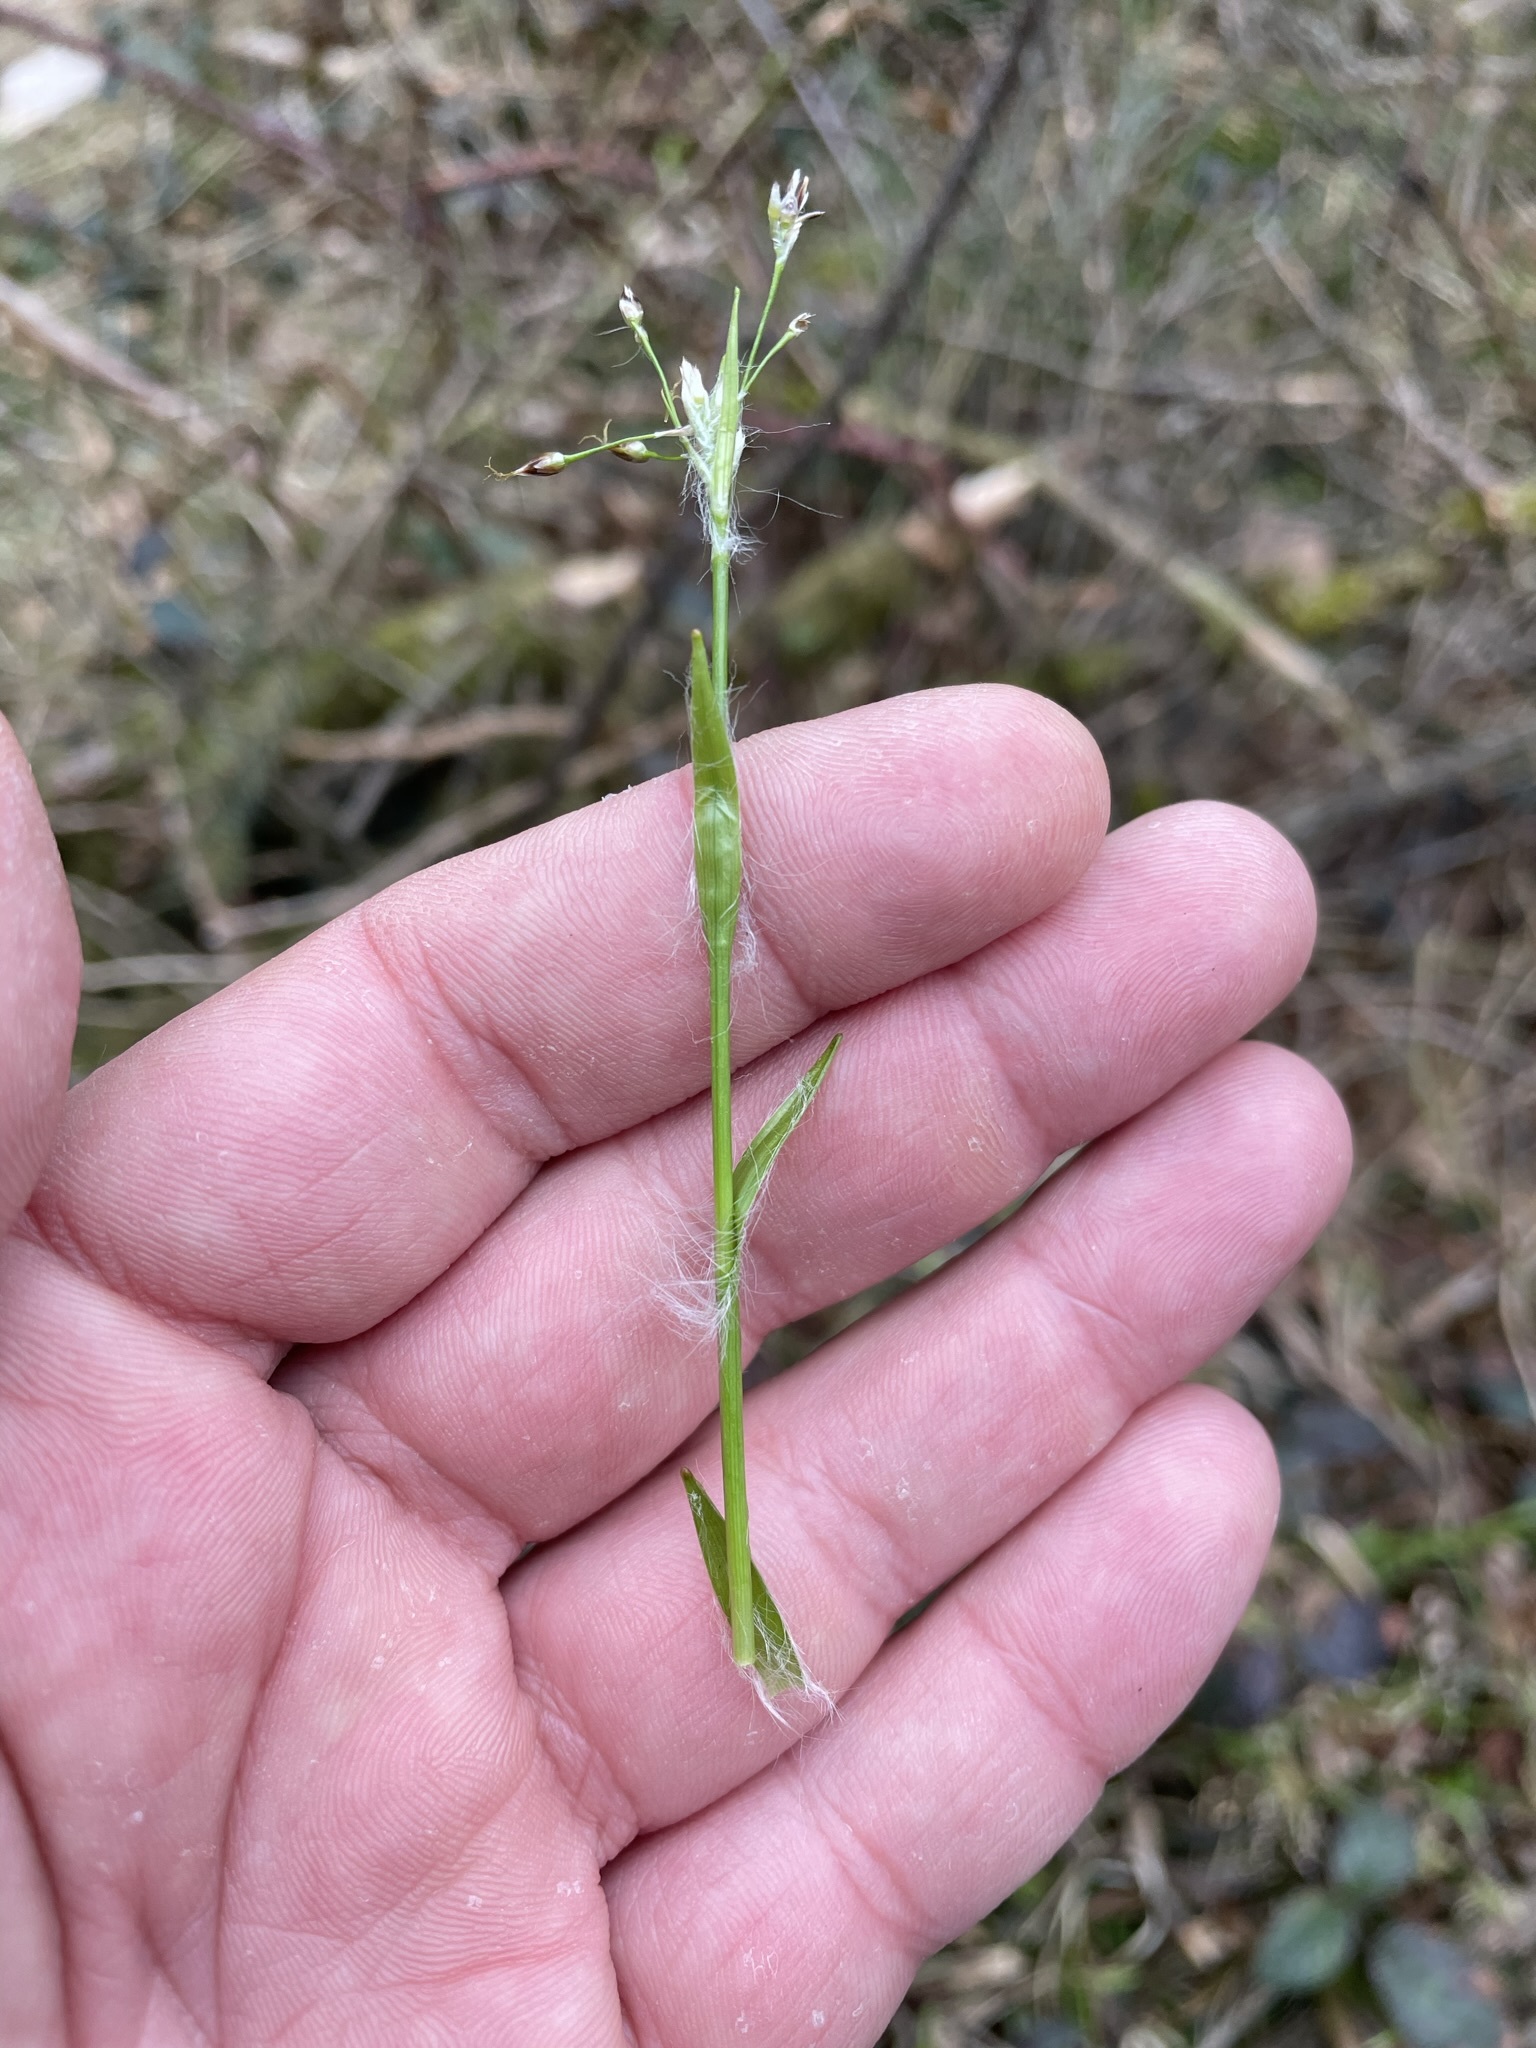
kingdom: Plantae
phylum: Tracheophyta
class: Liliopsida
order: Poales
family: Juncaceae
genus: Luzula
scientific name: Luzula pilosa
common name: Hairy wood-rush
